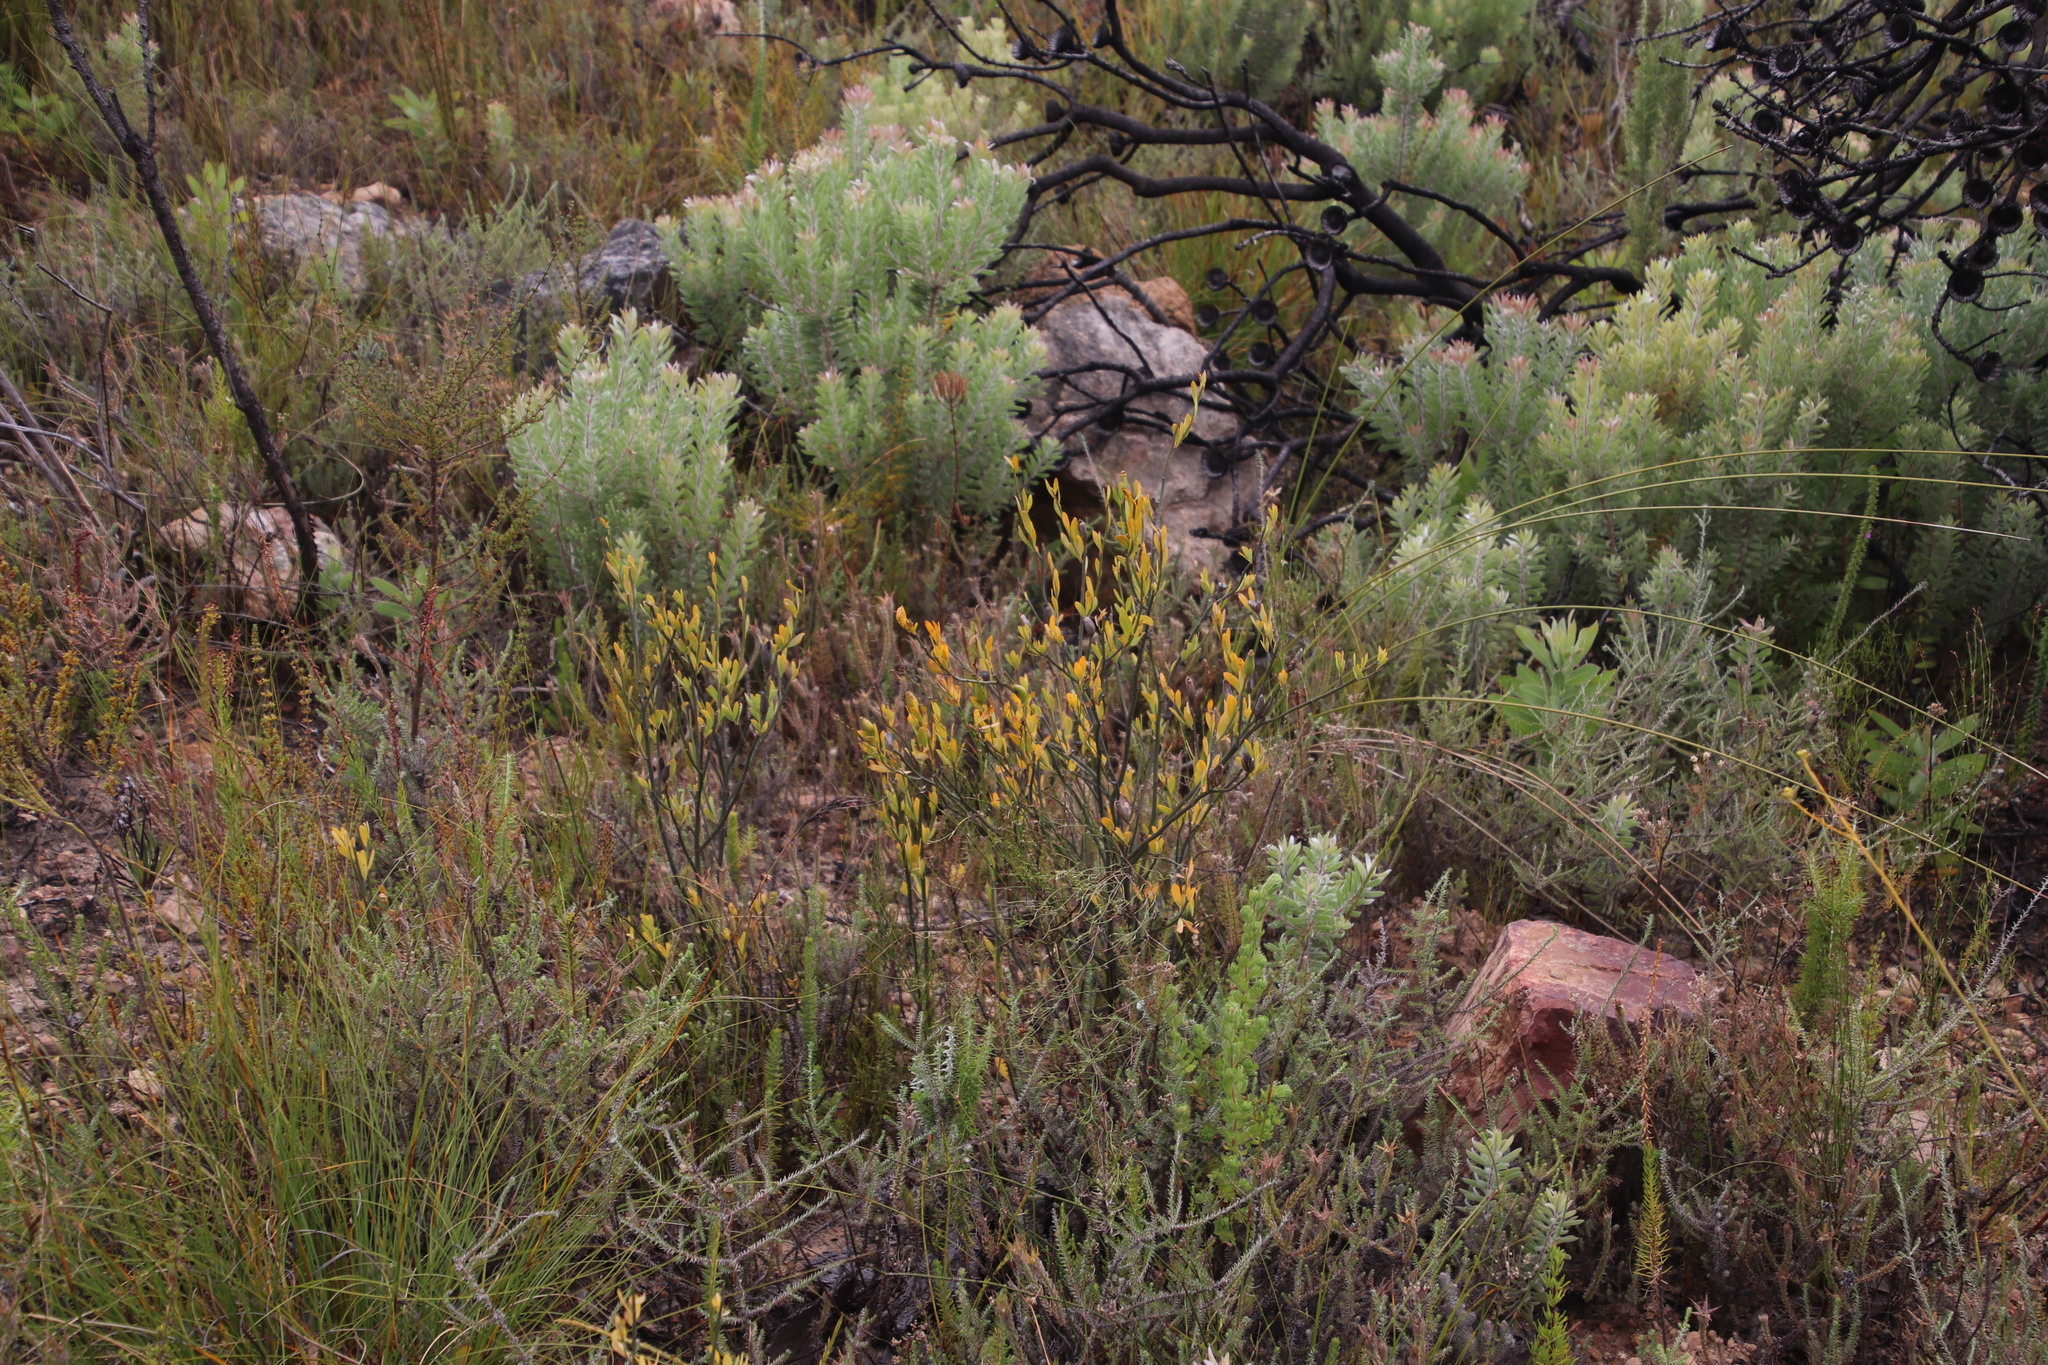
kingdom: Plantae
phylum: Tracheophyta
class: Magnoliopsida
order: Solanales
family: Montiniaceae
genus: Montinia
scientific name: Montinia caryophyllacea
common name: Wild clove-bush
